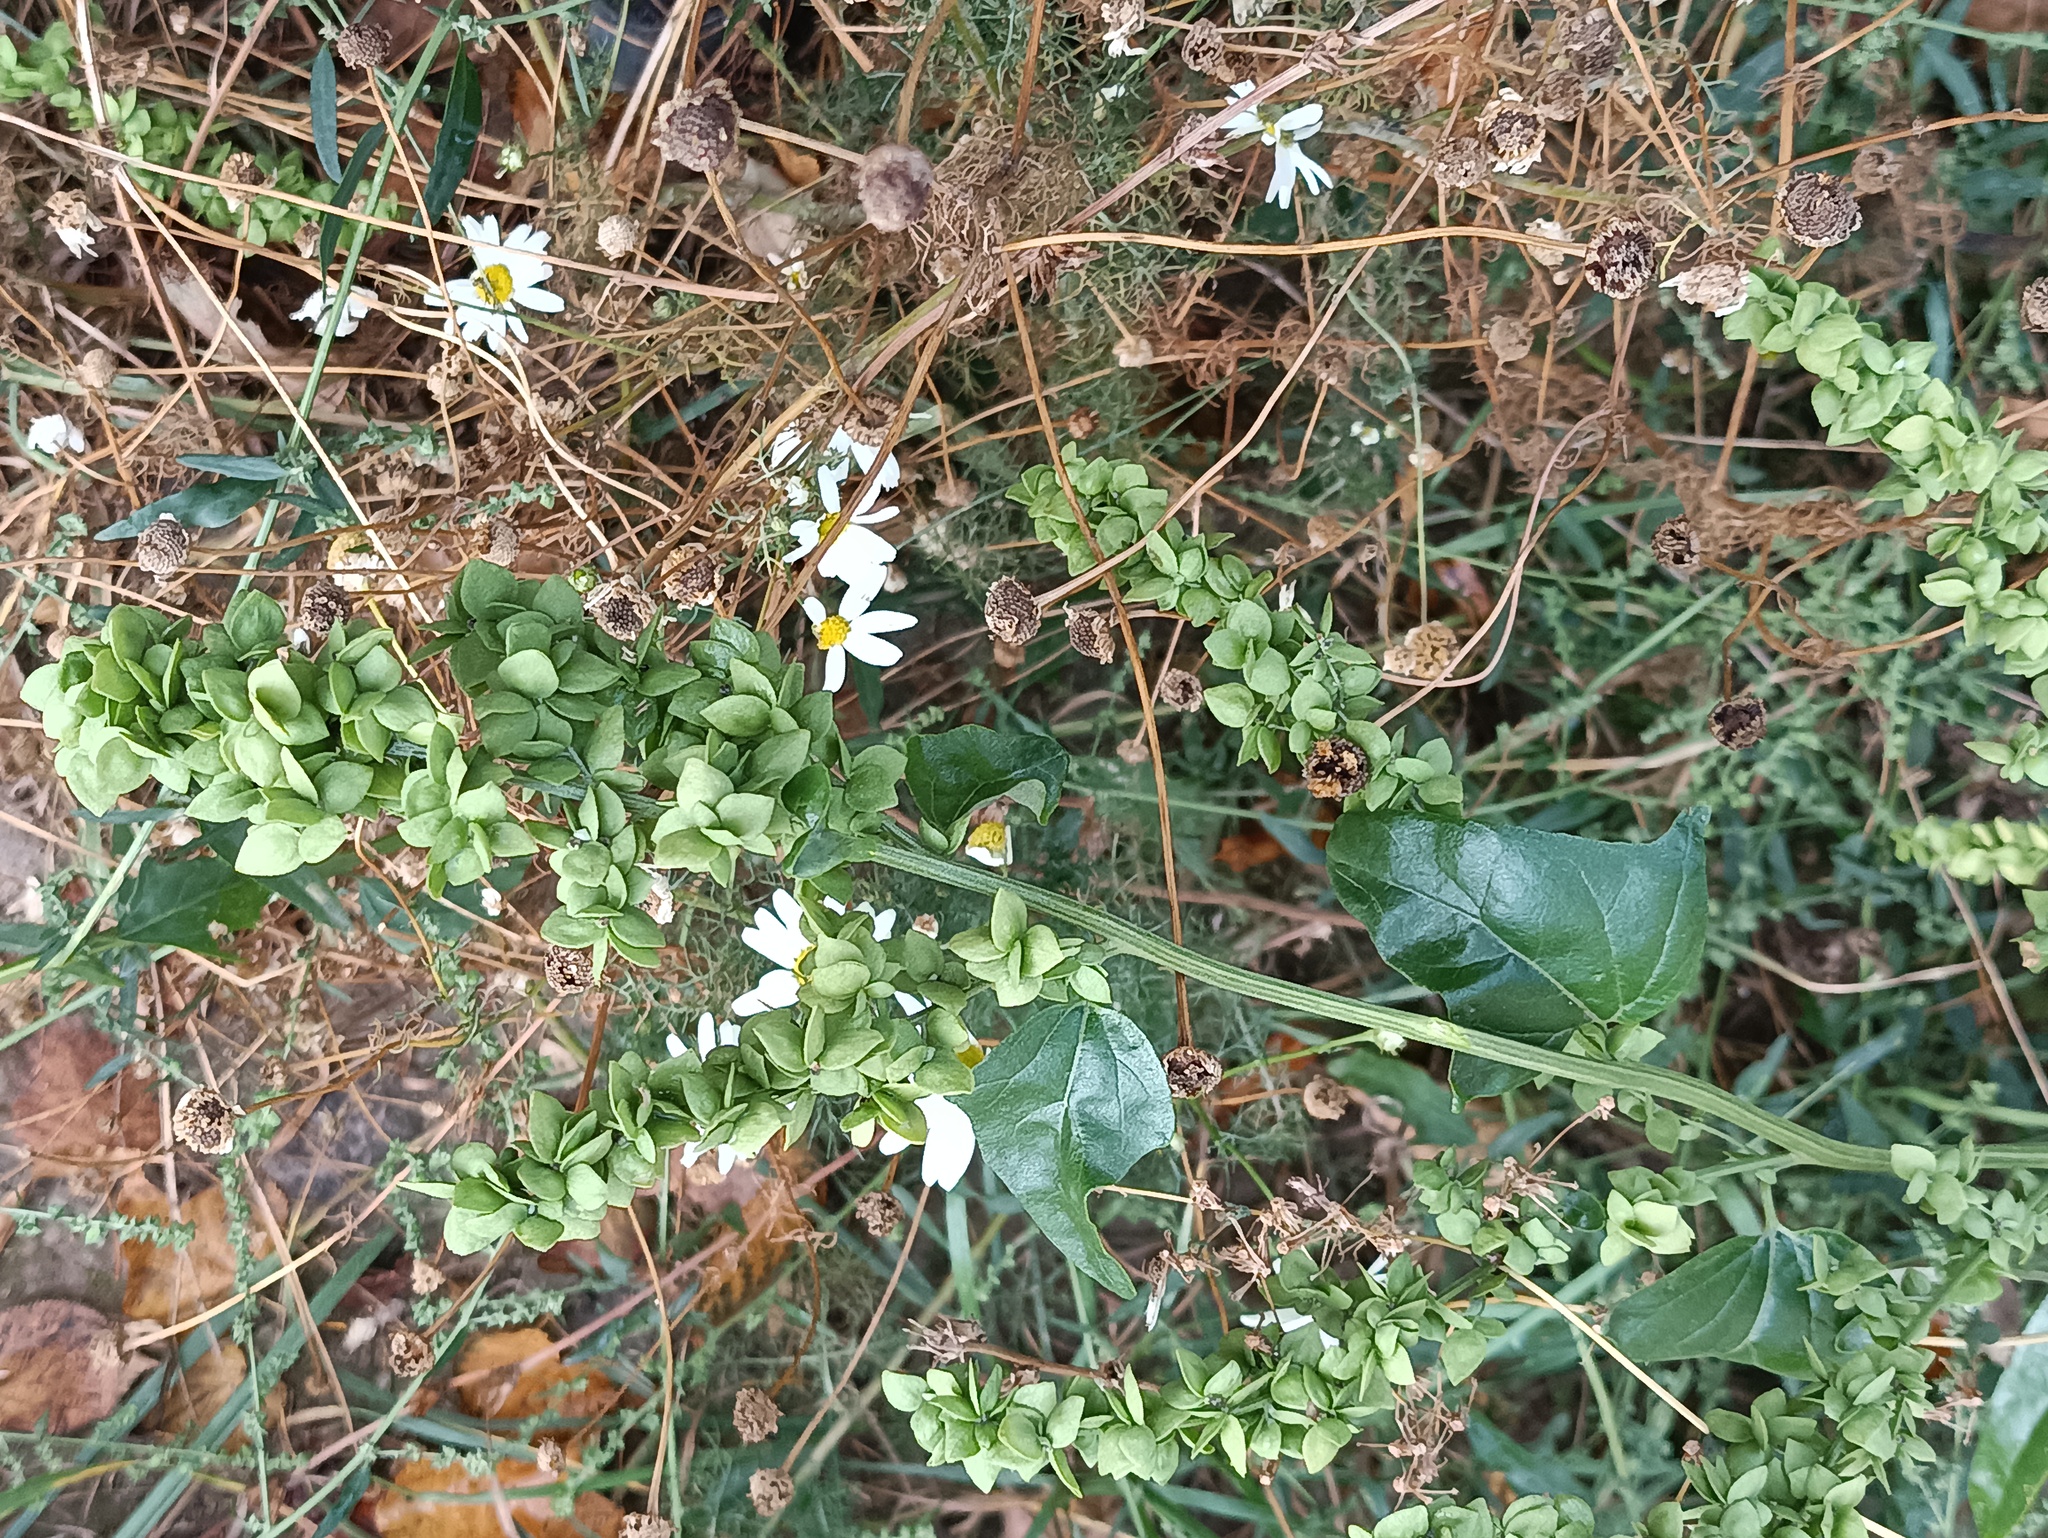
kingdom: Plantae
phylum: Tracheophyta
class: Magnoliopsida
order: Caryophyllales
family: Amaranthaceae
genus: Atriplex
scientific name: Atriplex sagittata
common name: Purple orache
